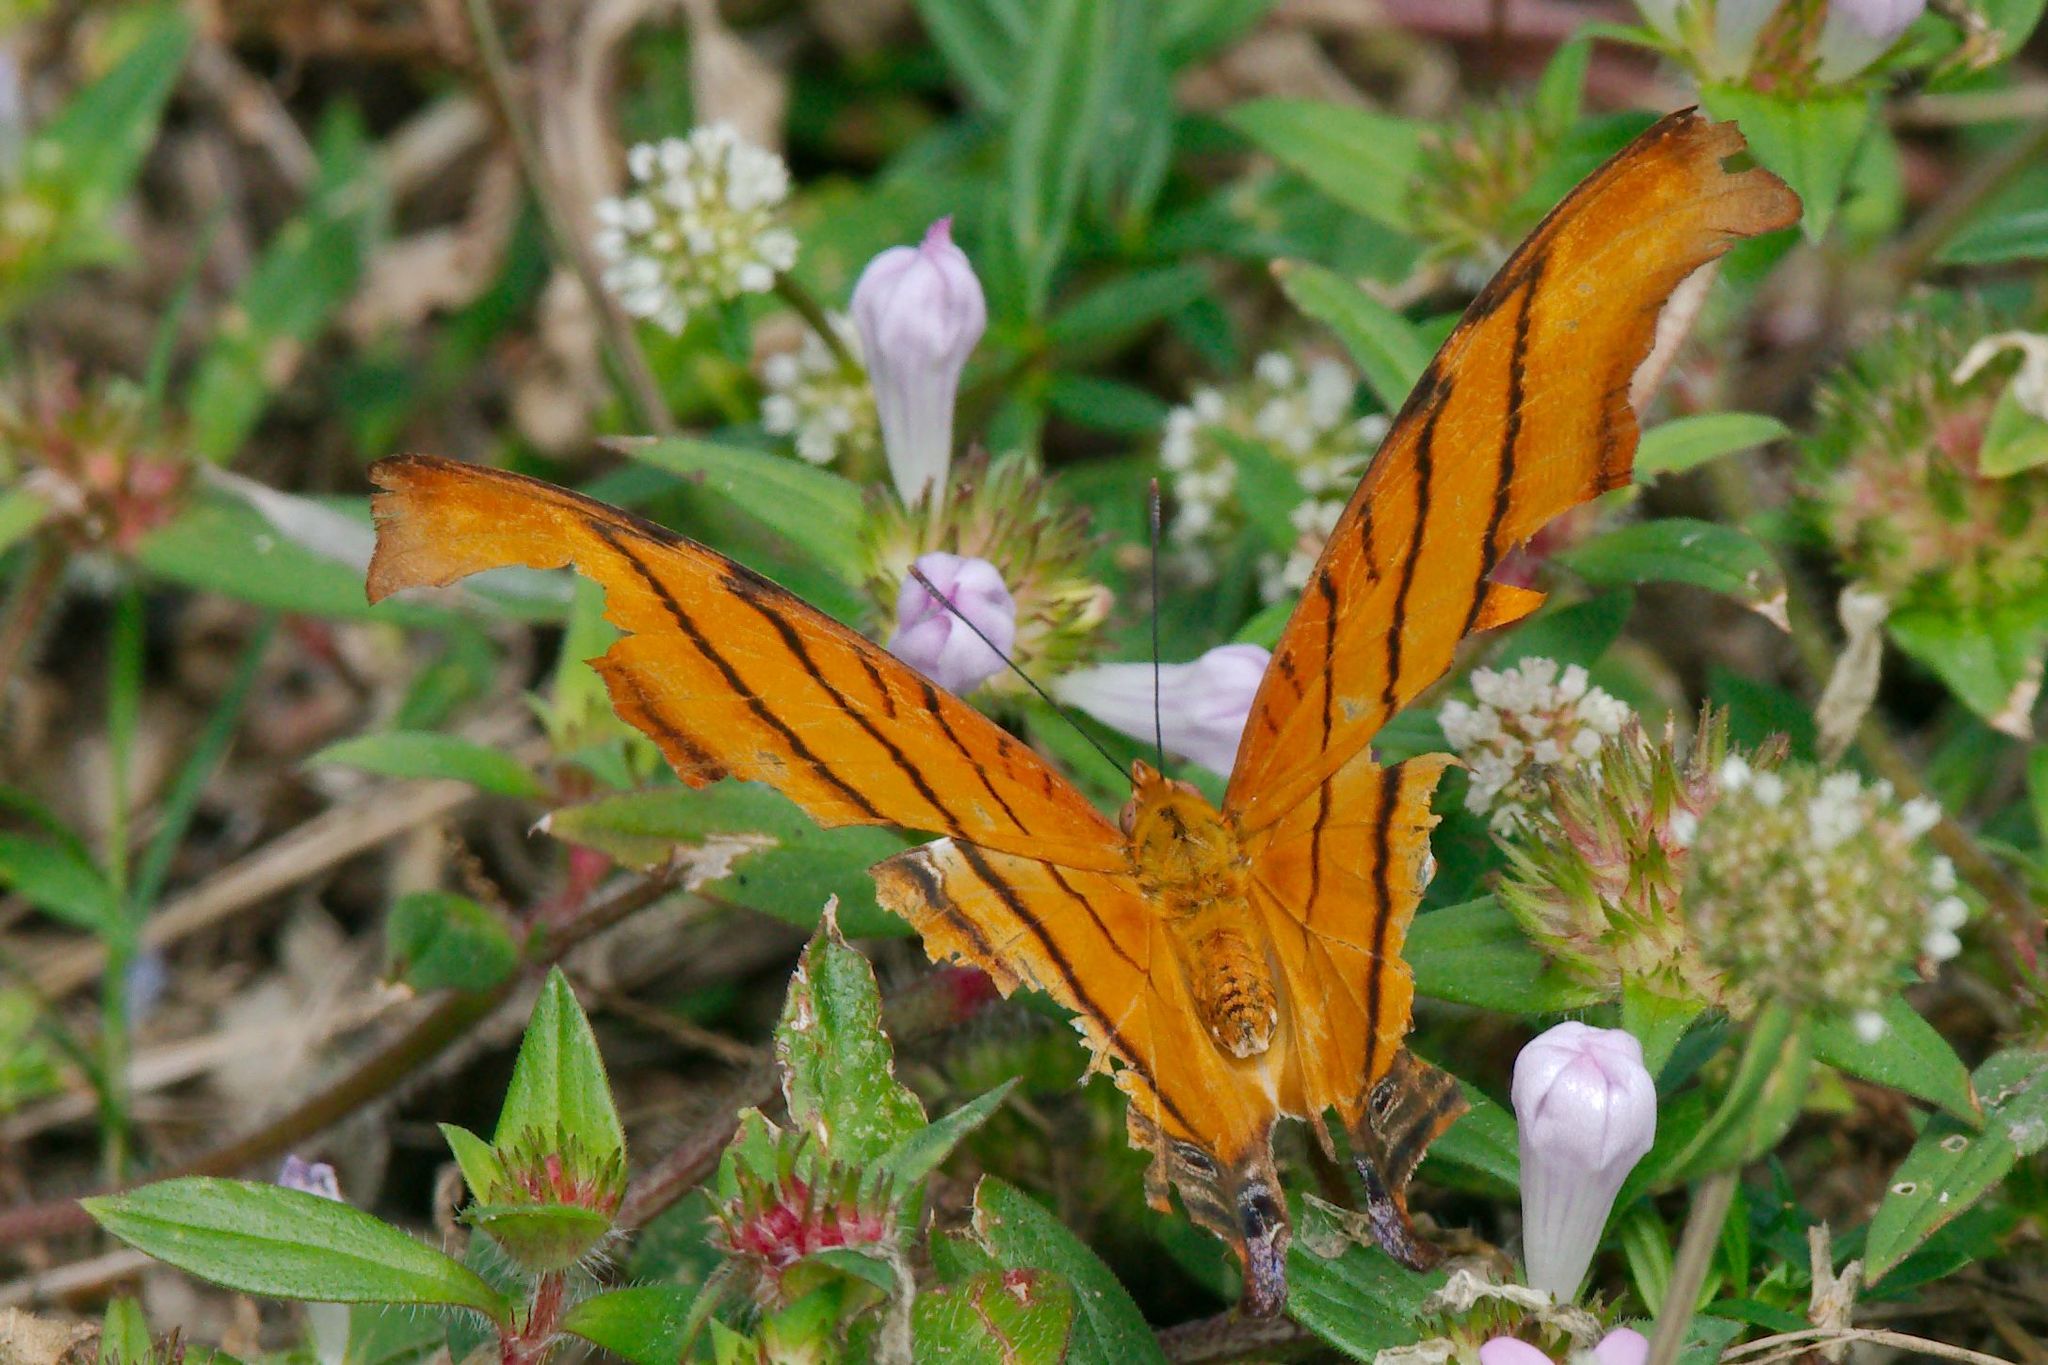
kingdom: Animalia
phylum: Arthropoda
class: Insecta
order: Lepidoptera
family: Nymphalidae
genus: Marpesia
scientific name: Marpesia petreus
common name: Red dagger wing
